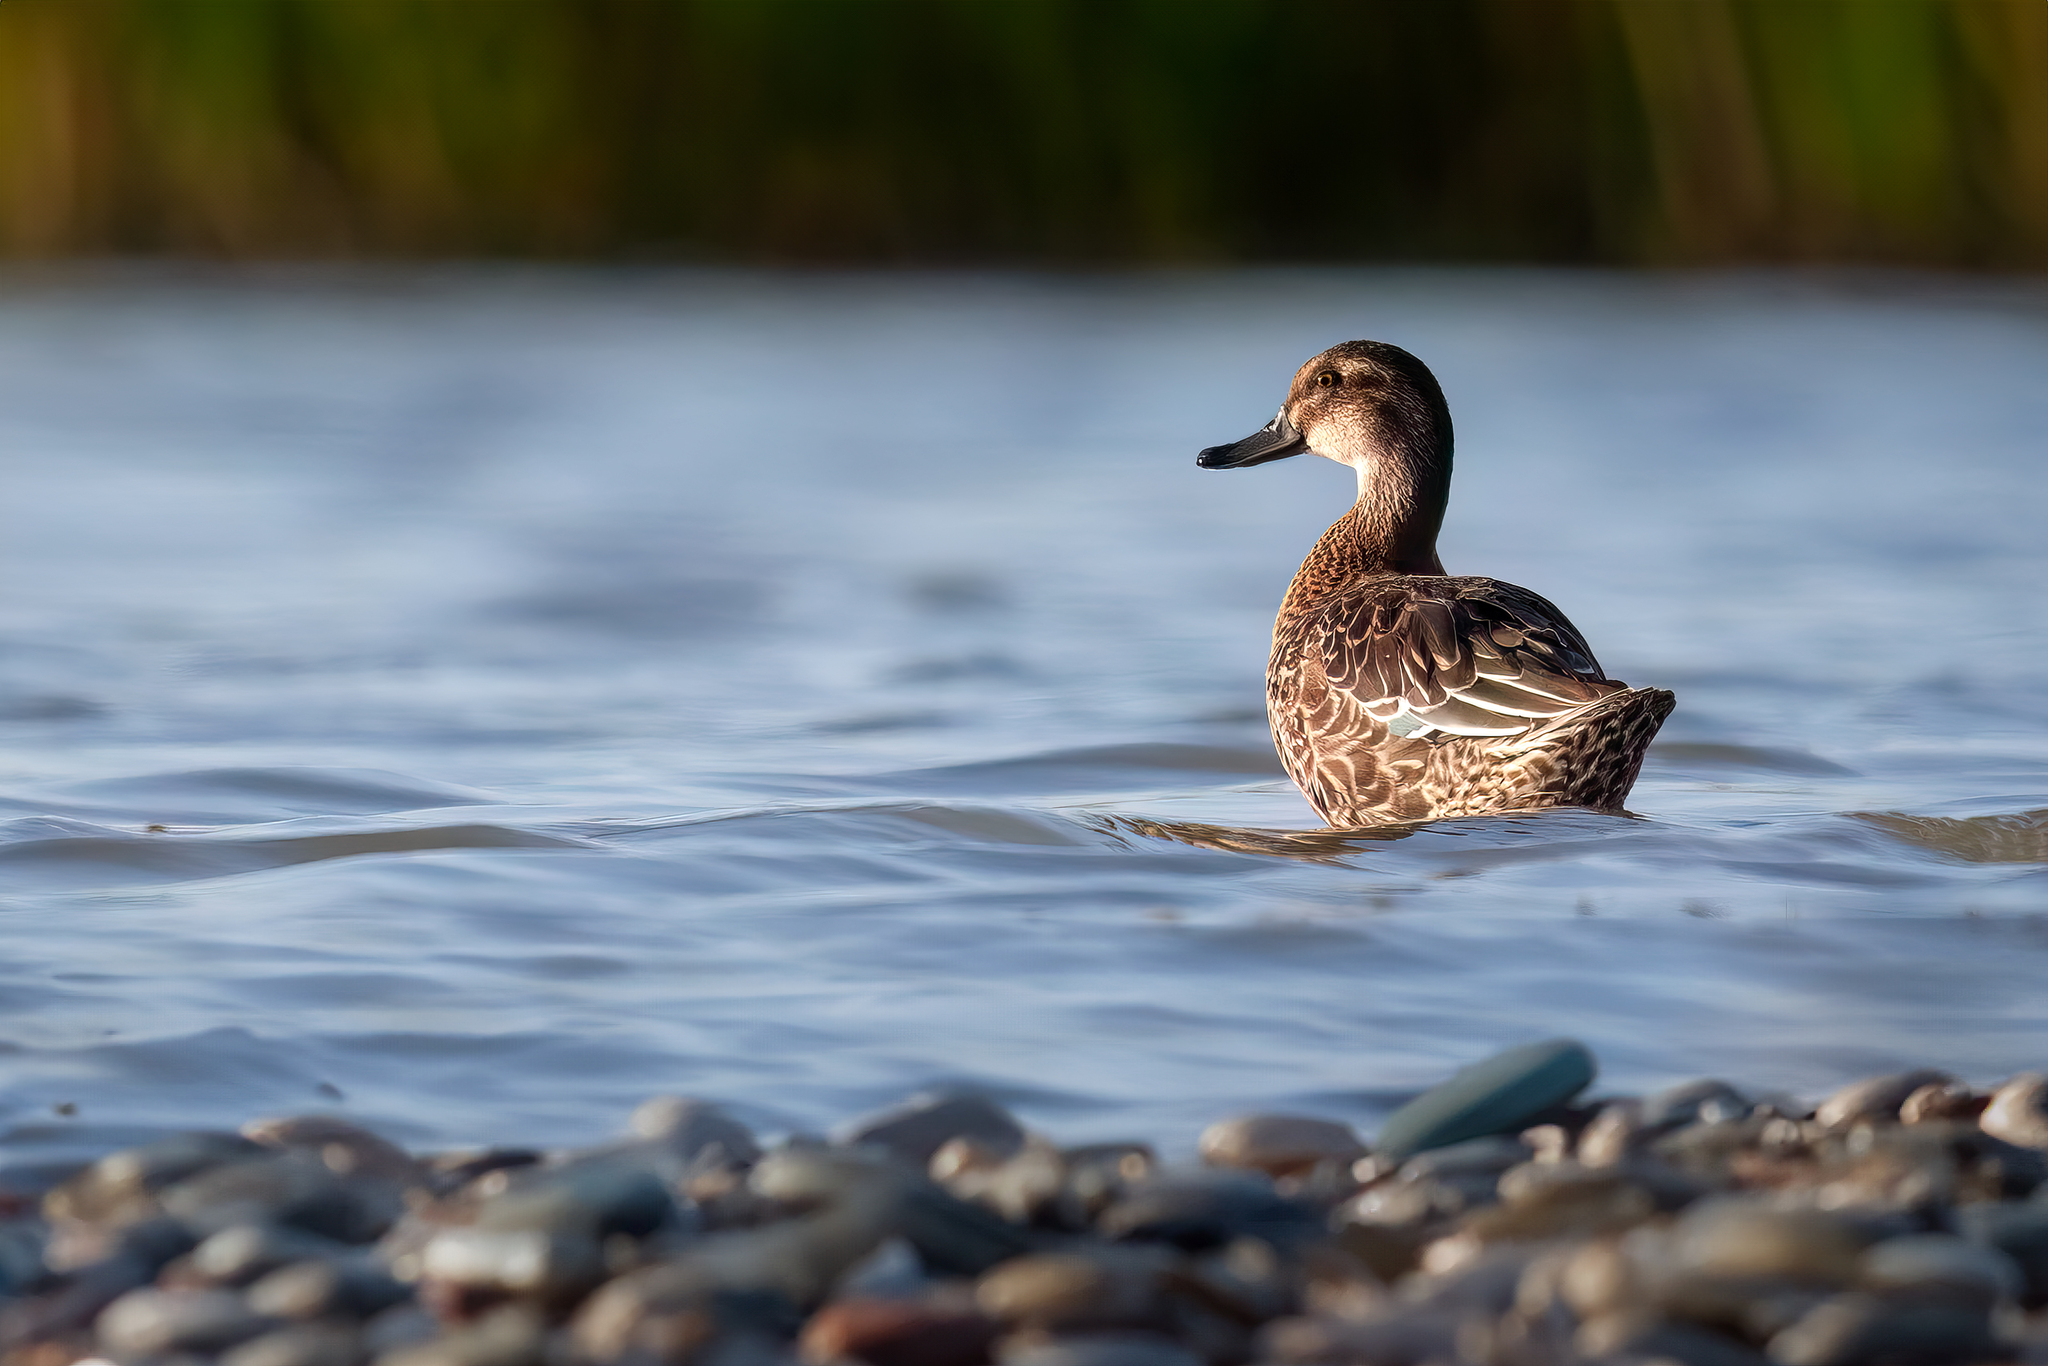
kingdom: Animalia
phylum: Chordata
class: Aves
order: Anseriformes
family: Anatidae
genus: Spatula
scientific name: Spatula querquedula
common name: Garganey
